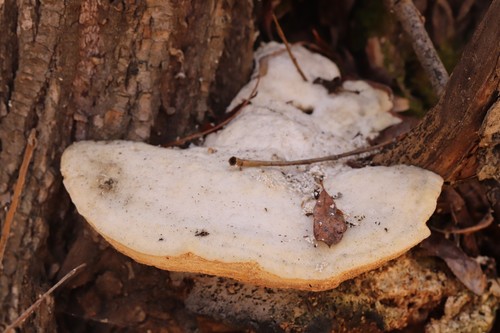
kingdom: Fungi
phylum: Basidiomycota
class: Agaricomycetes
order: Polyporales
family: Polyporaceae
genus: Trametes
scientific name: Trametes suaveolens
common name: Fragrant bracket
